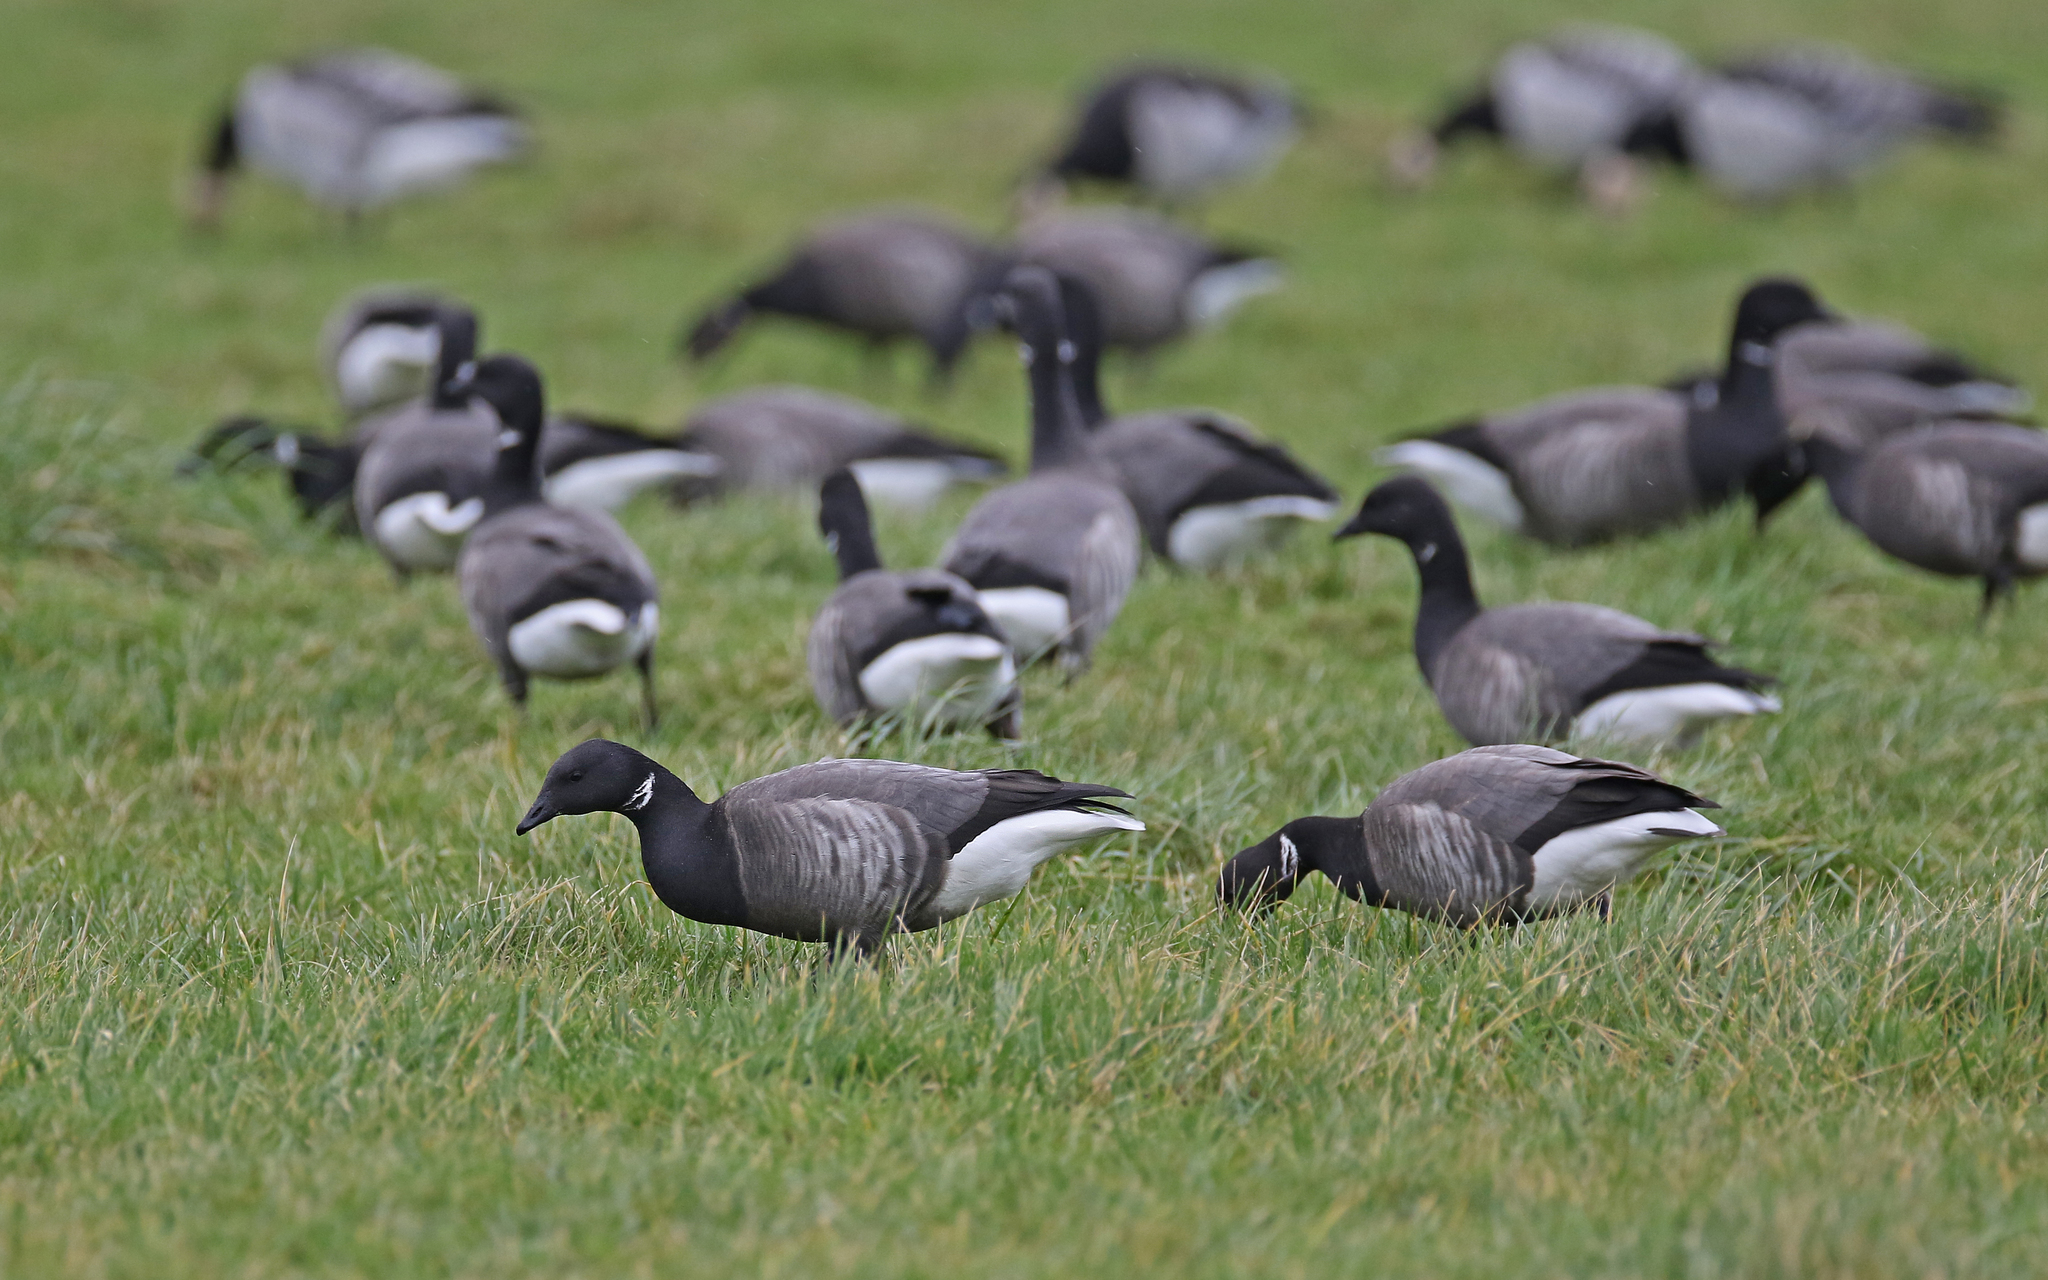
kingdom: Animalia
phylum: Chordata
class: Aves
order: Anseriformes
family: Anatidae
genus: Branta
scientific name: Branta bernicla
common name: Brant goose
